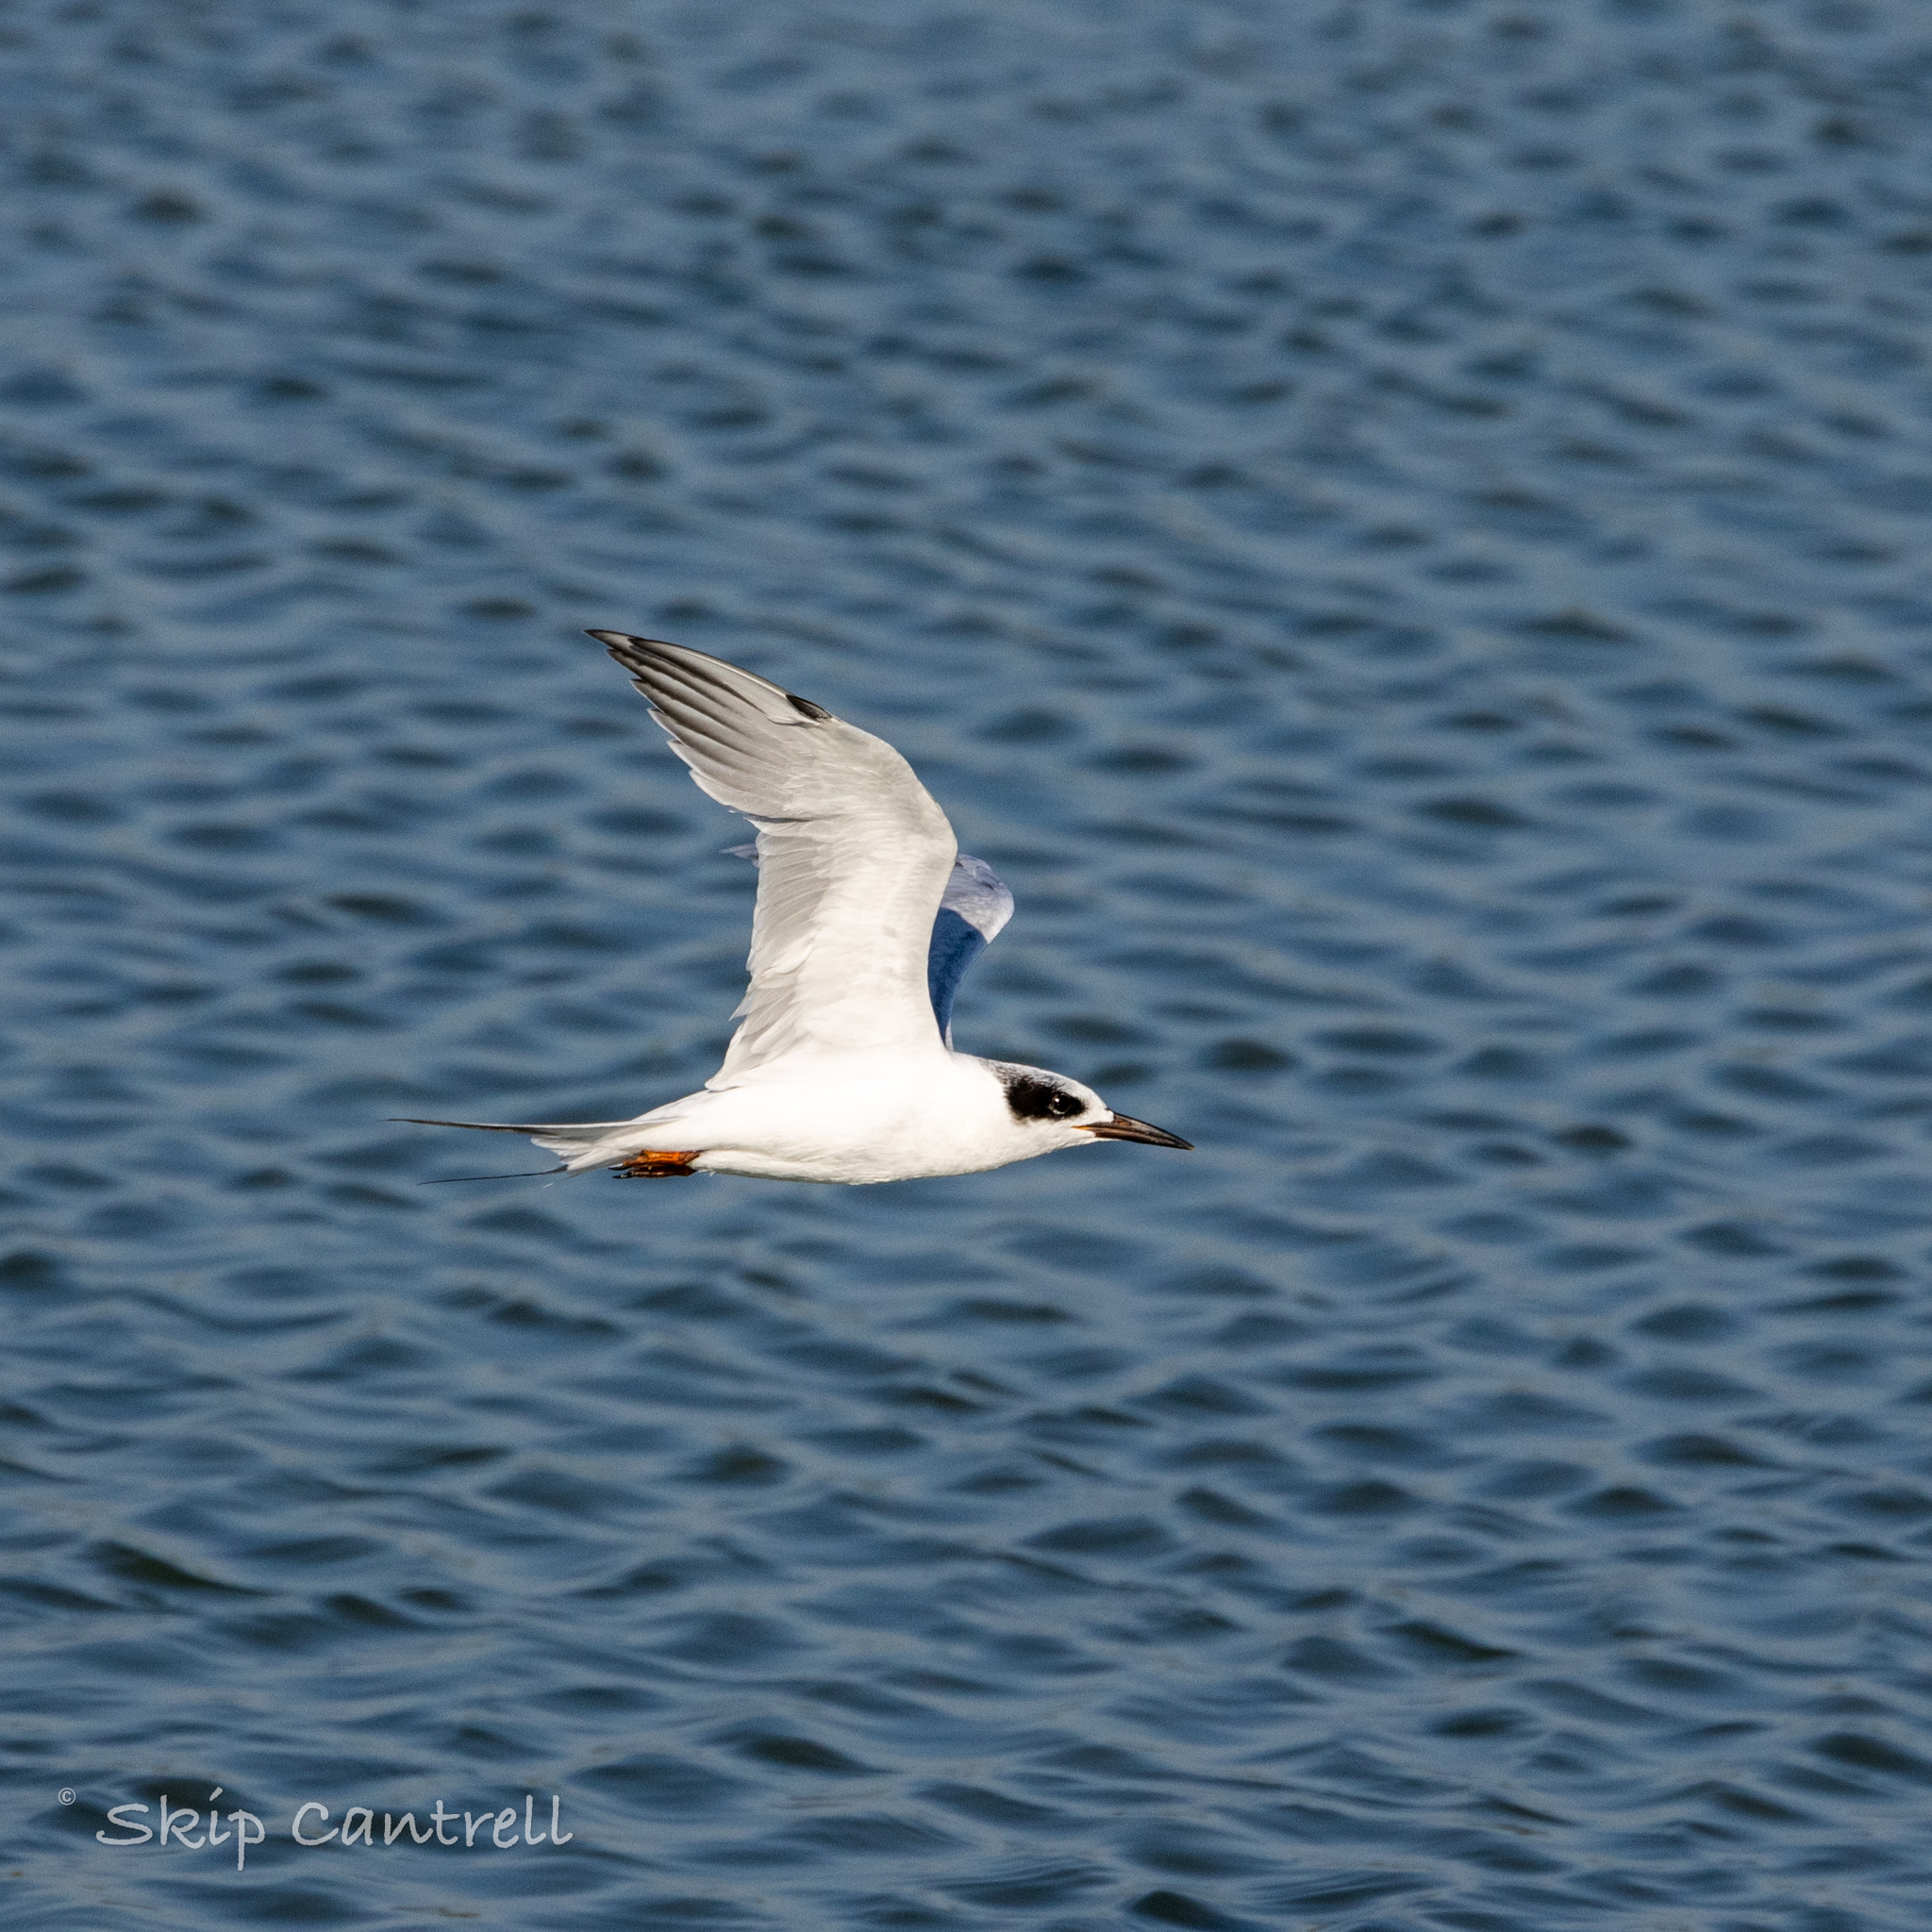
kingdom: Animalia
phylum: Chordata
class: Aves
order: Charadriiformes
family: Laridae
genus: Sterna
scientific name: Sterna forsteri
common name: Forster's tern
